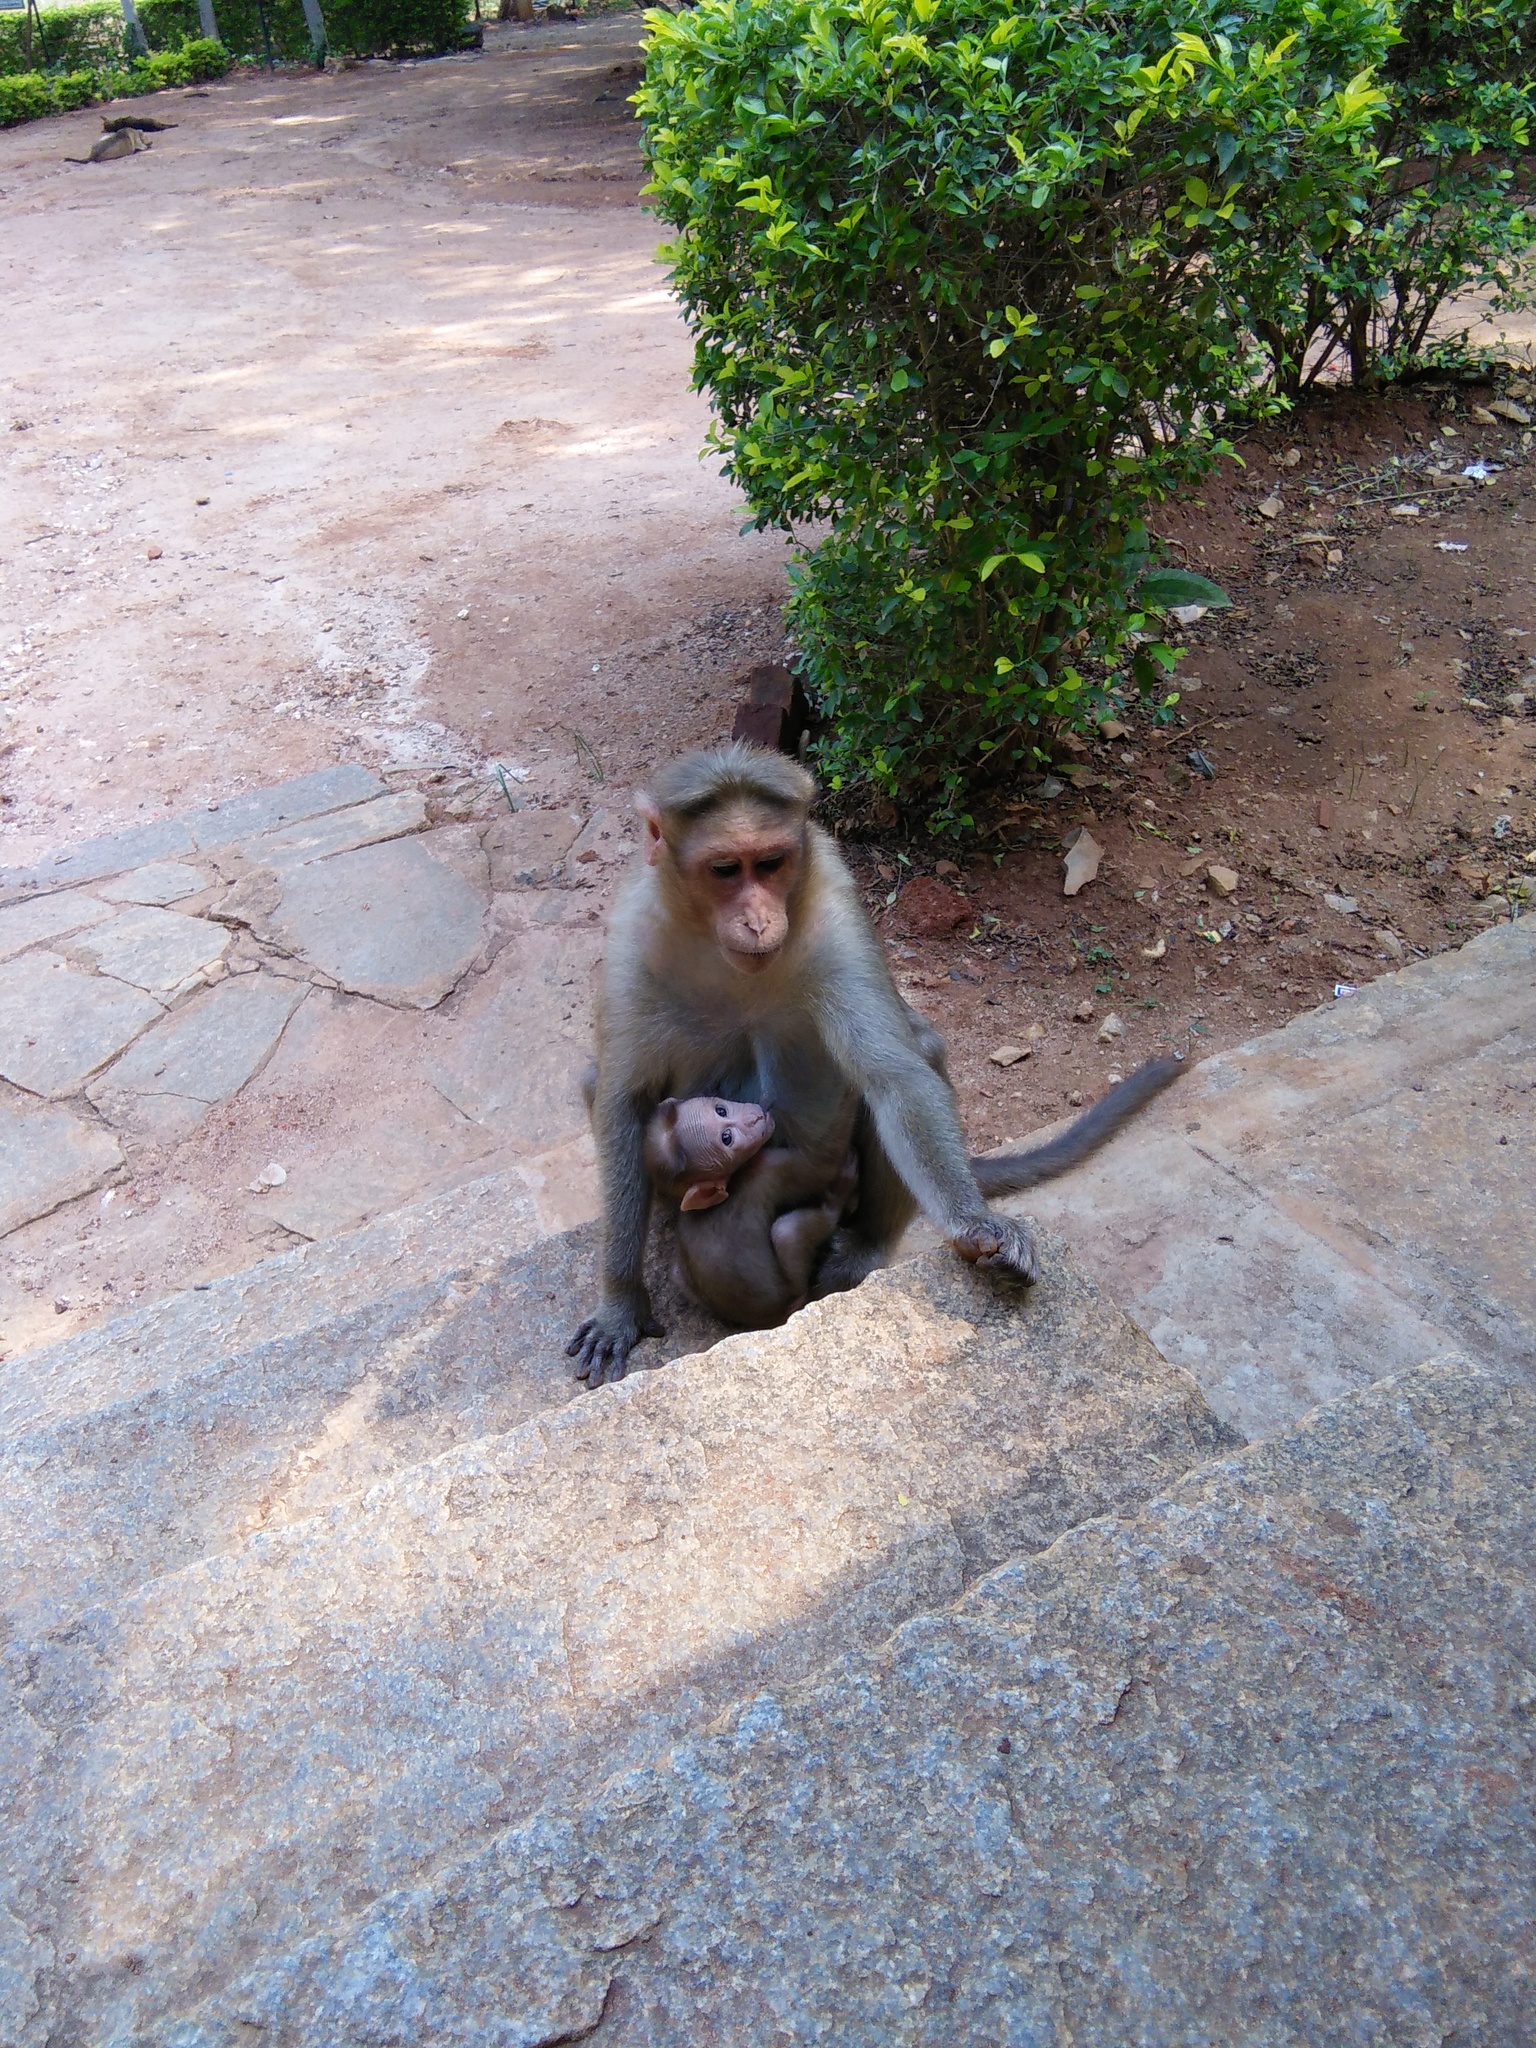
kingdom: Animalia
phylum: Chordata
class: Mammalia
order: Primates
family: Cercopithecidae
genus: Macaca
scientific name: Macaca radiata
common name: Bonnet macaque
